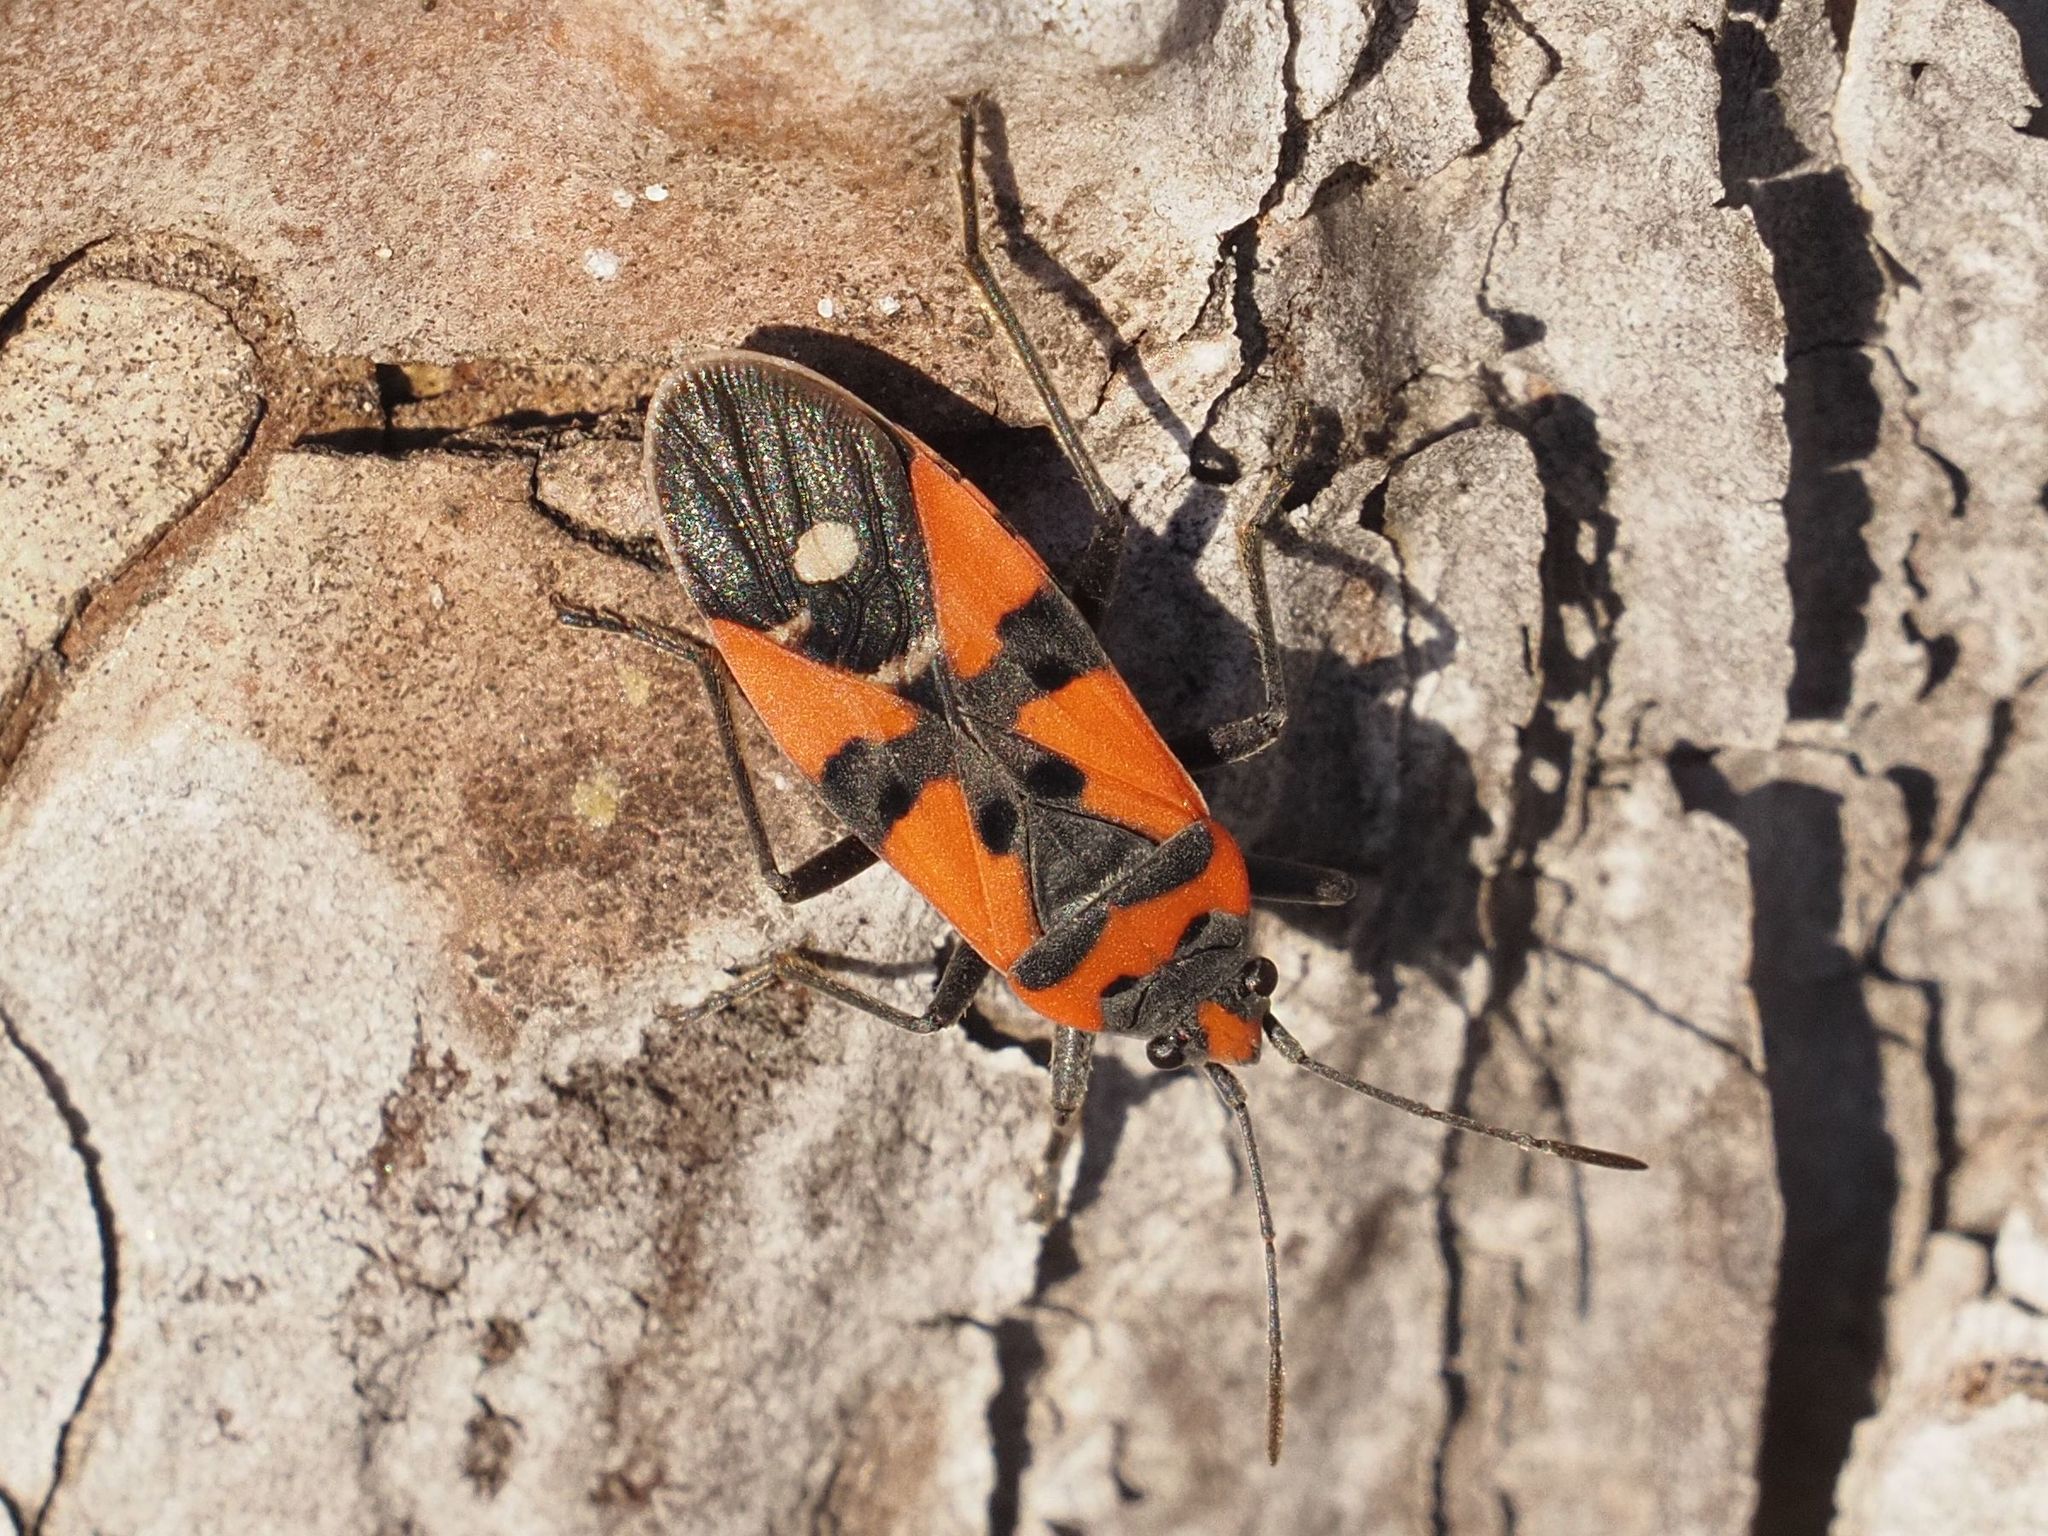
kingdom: Animalia
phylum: Arthropoda
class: Insecta
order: Hemiptera
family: Lygaeidae
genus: Lygaeus
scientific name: Lygaeus equestris
